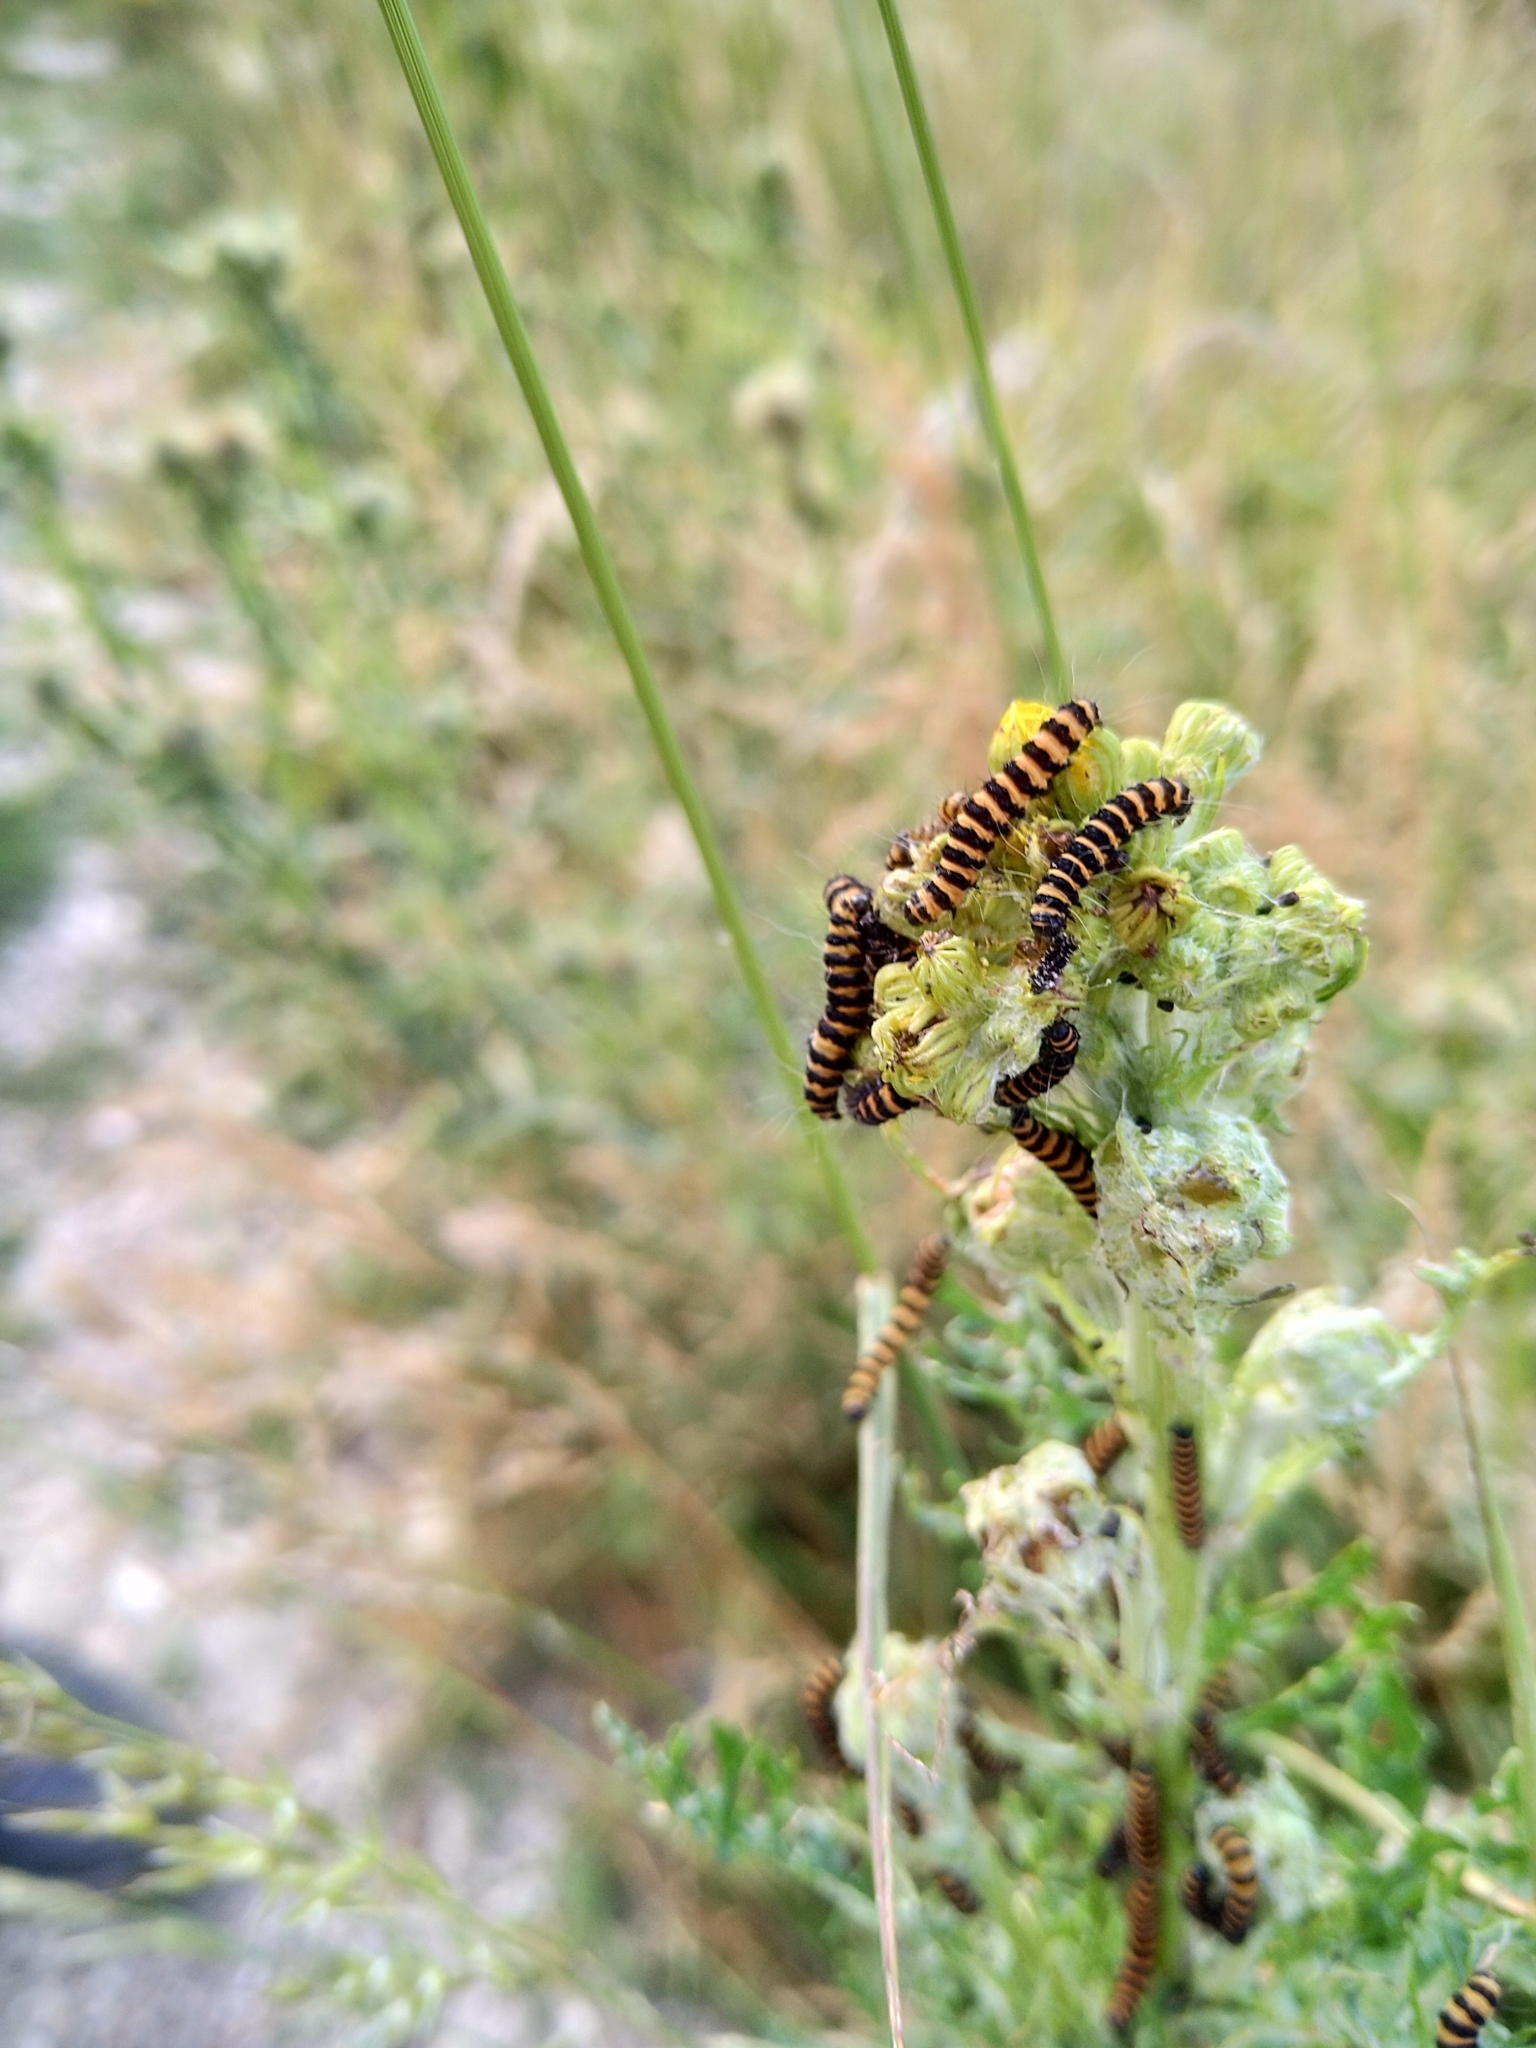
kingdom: Animalia
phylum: Arthropoda
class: Insecta
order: Lepidoptera
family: Erebidae
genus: Tyria
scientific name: Tyria jacobaeae
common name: Cinnabar
